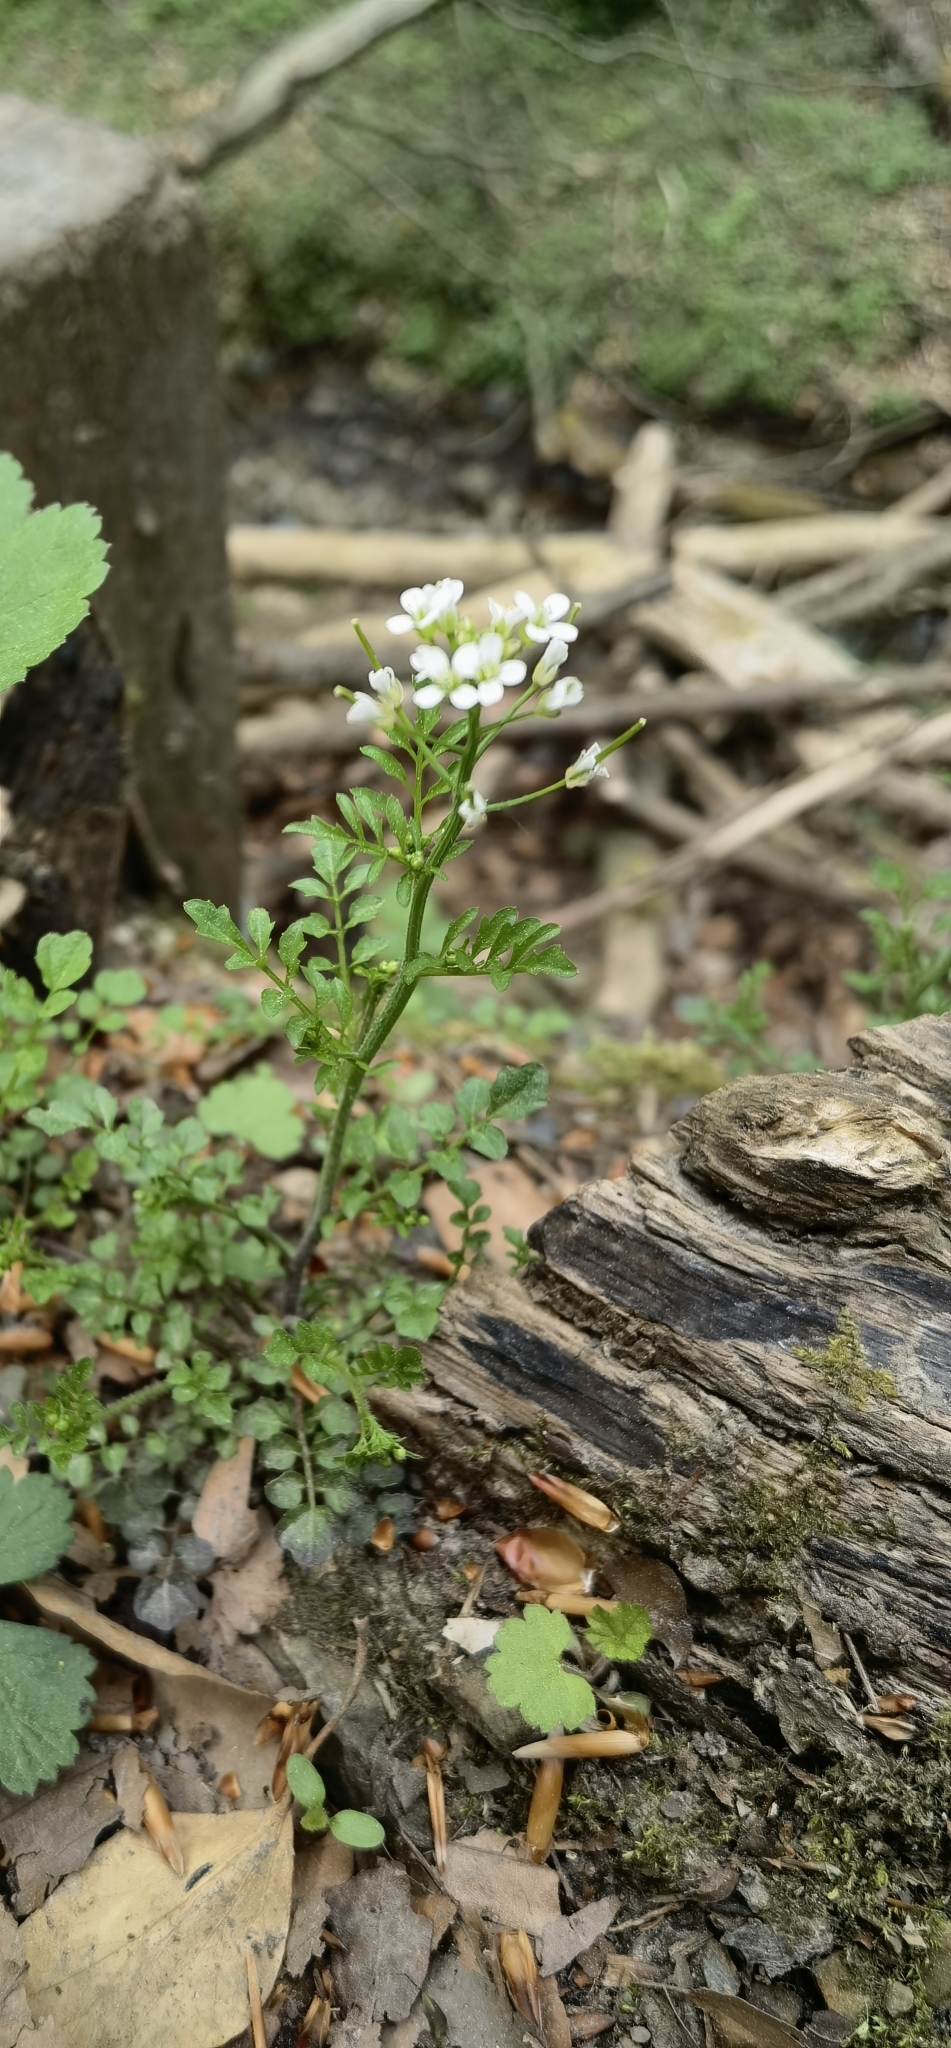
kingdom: Plantae
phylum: Tracheophyta
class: Magnoliopsida
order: Brassicales
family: Brassicaceae
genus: Cardamine
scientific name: Cardamine flexuosa
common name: Woodland bittercress
